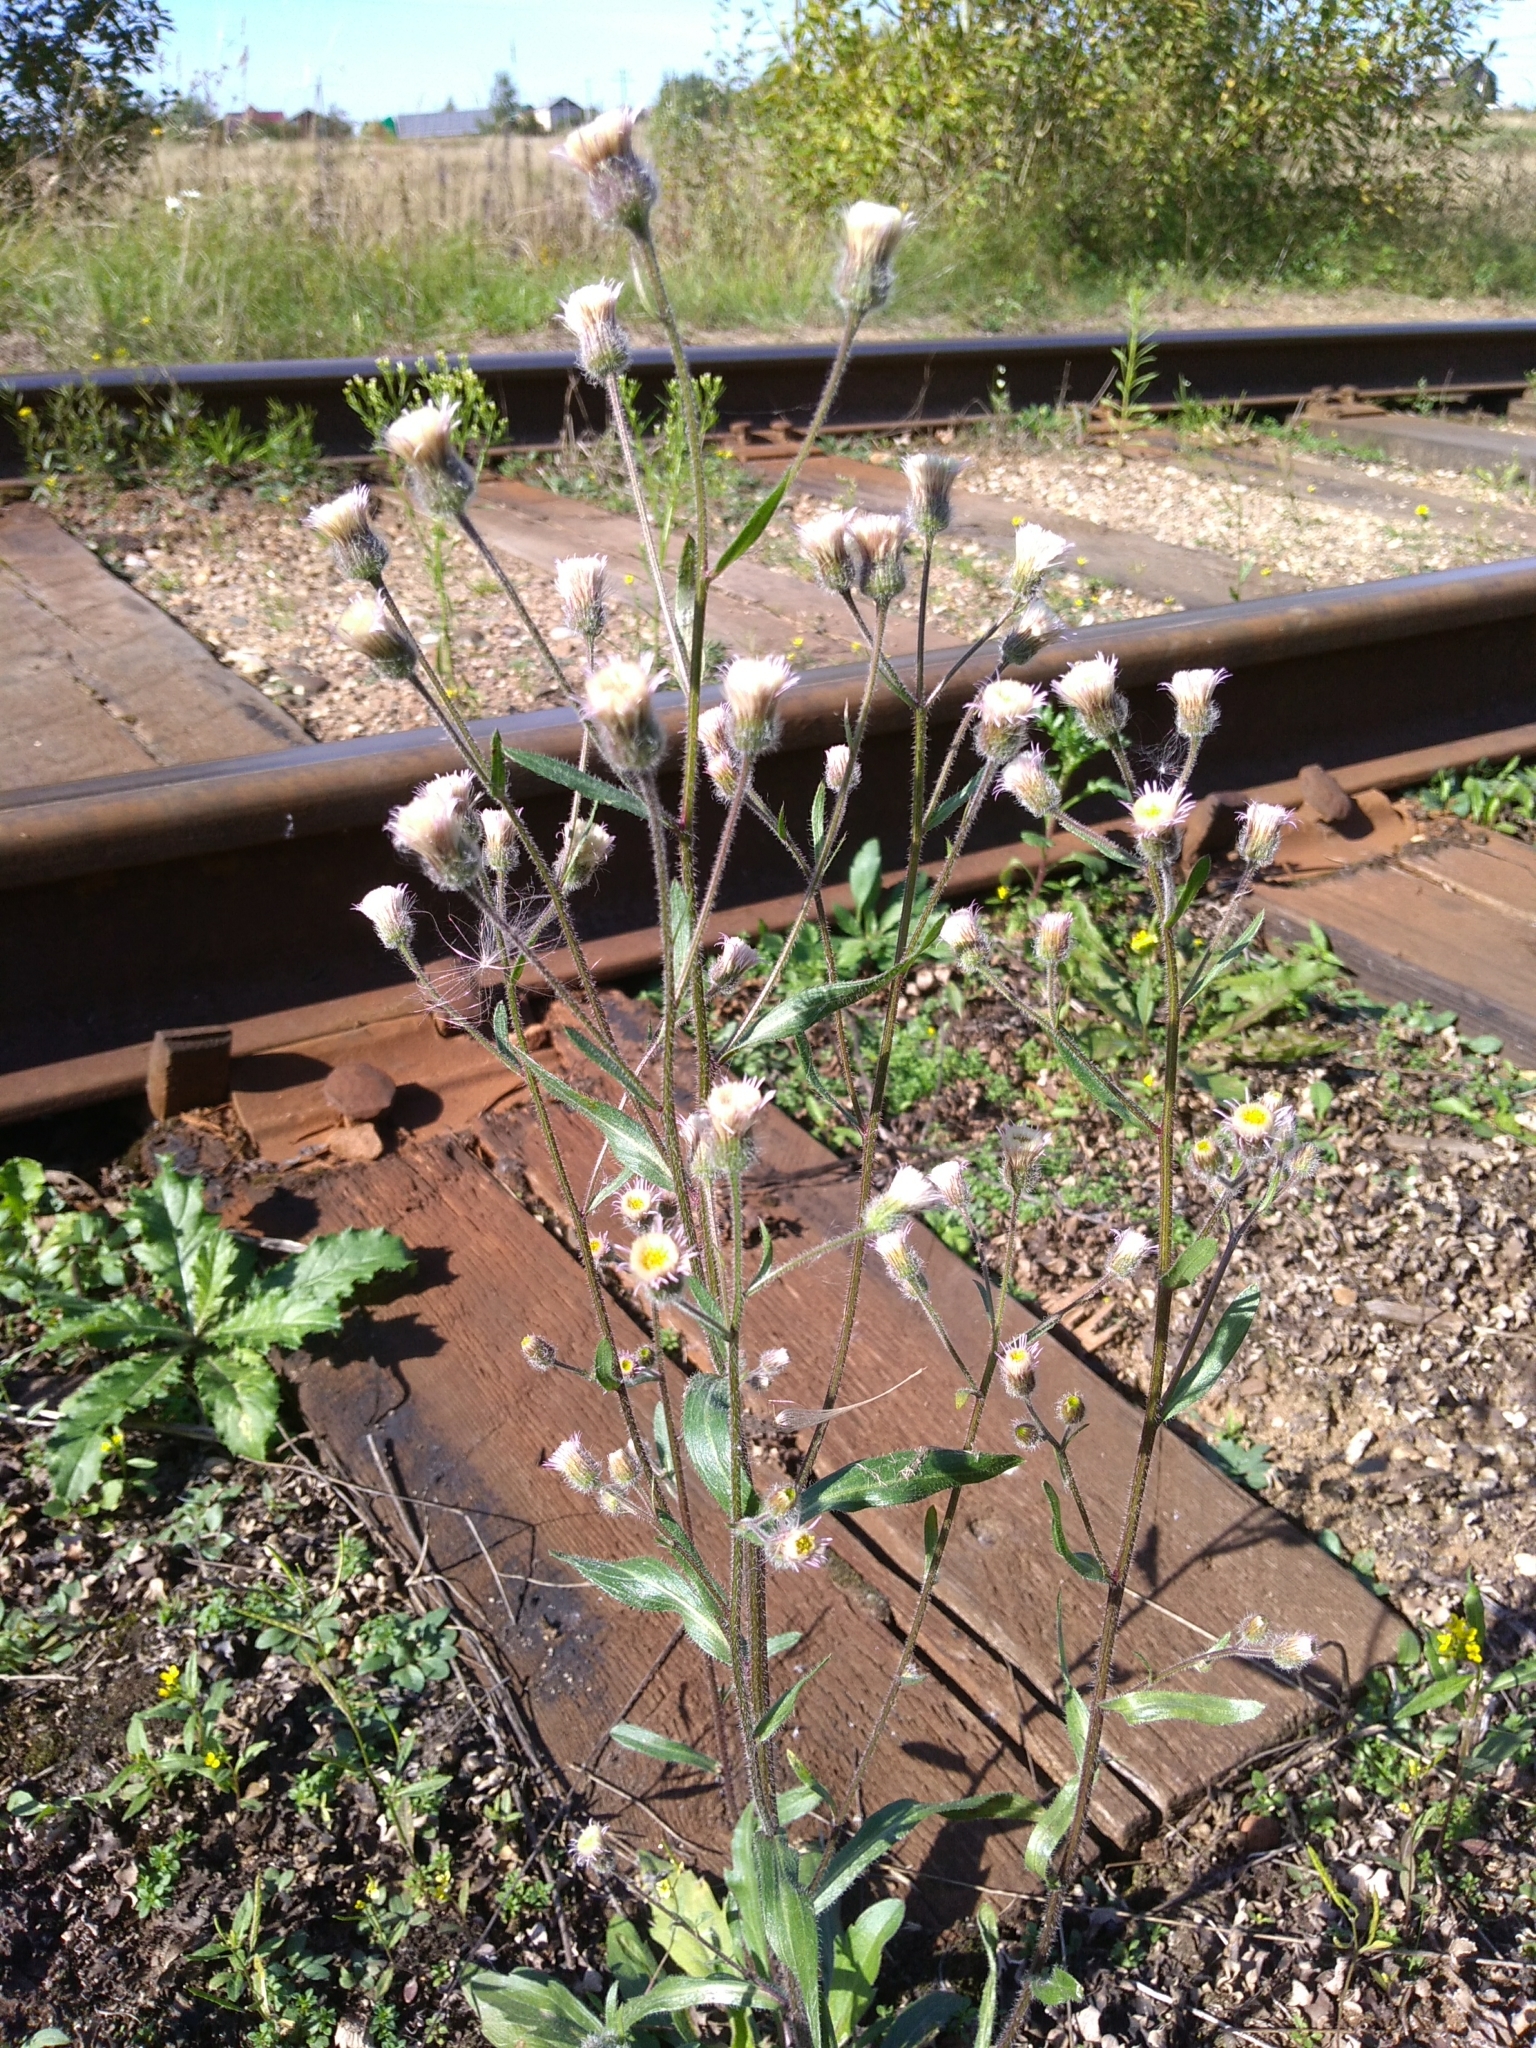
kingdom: Plantae
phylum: Tracheophyta
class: Magnoliopsida
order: Asterales
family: Asteraceae
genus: Erigeron
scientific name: Erigeron acris
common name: Blue fleabane
